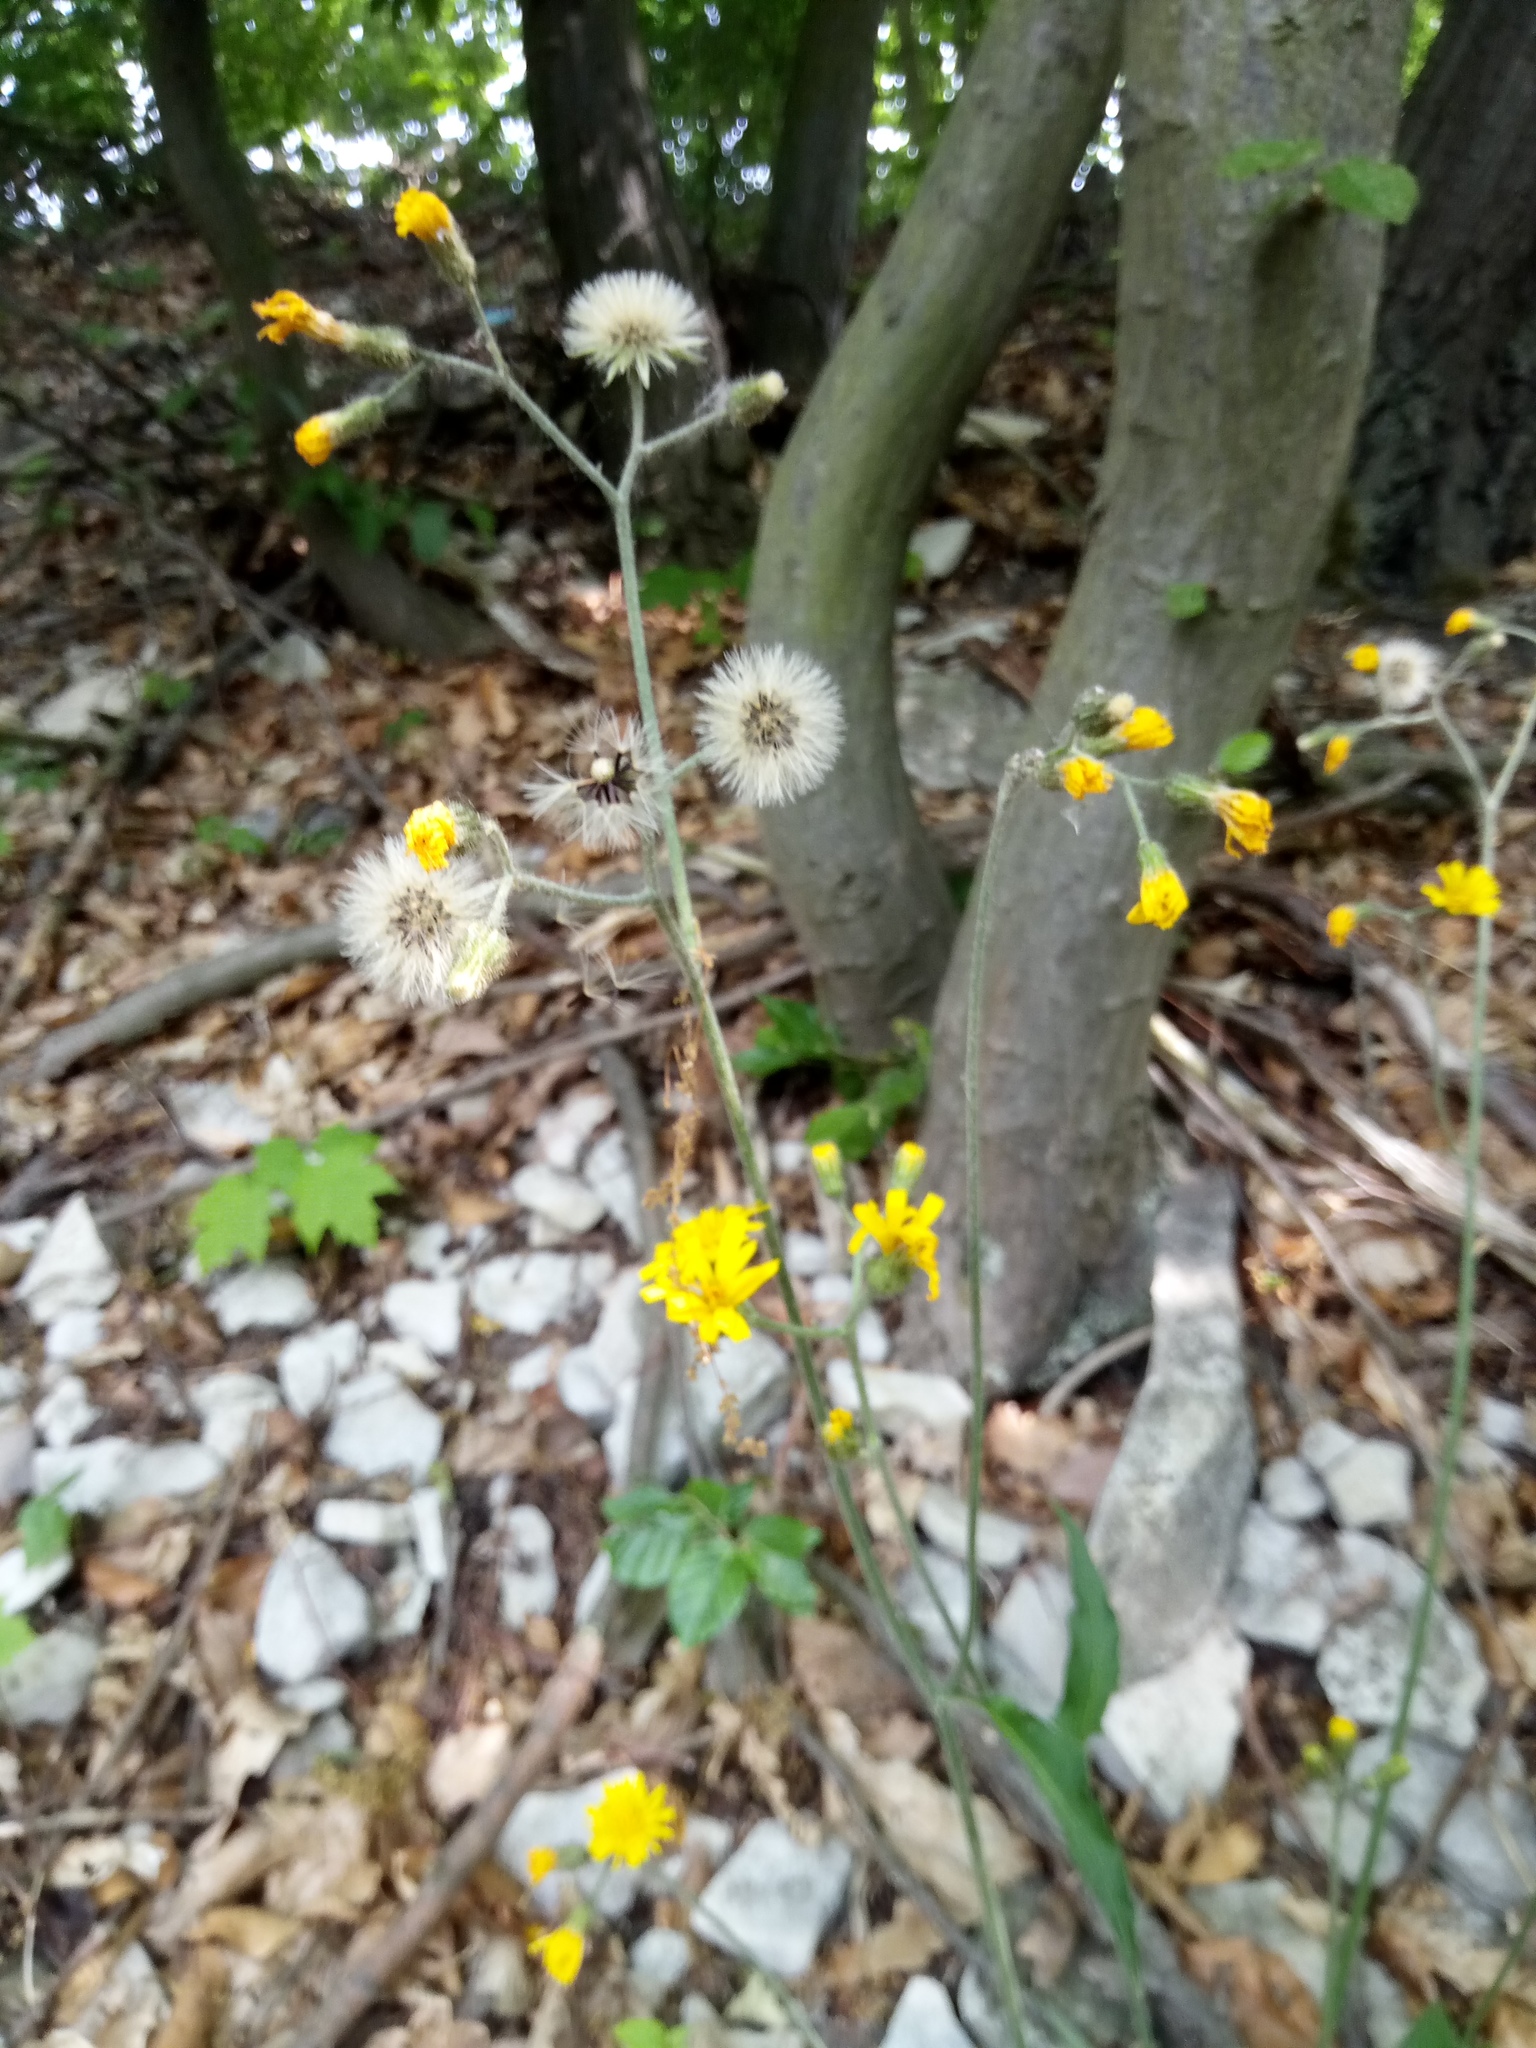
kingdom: Plantae
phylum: Tracheophyta
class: Magnoliopsida
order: Asterales
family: Asteraceae
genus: Hieracium
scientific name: Hieracium murorum
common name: Wall hawkweed
